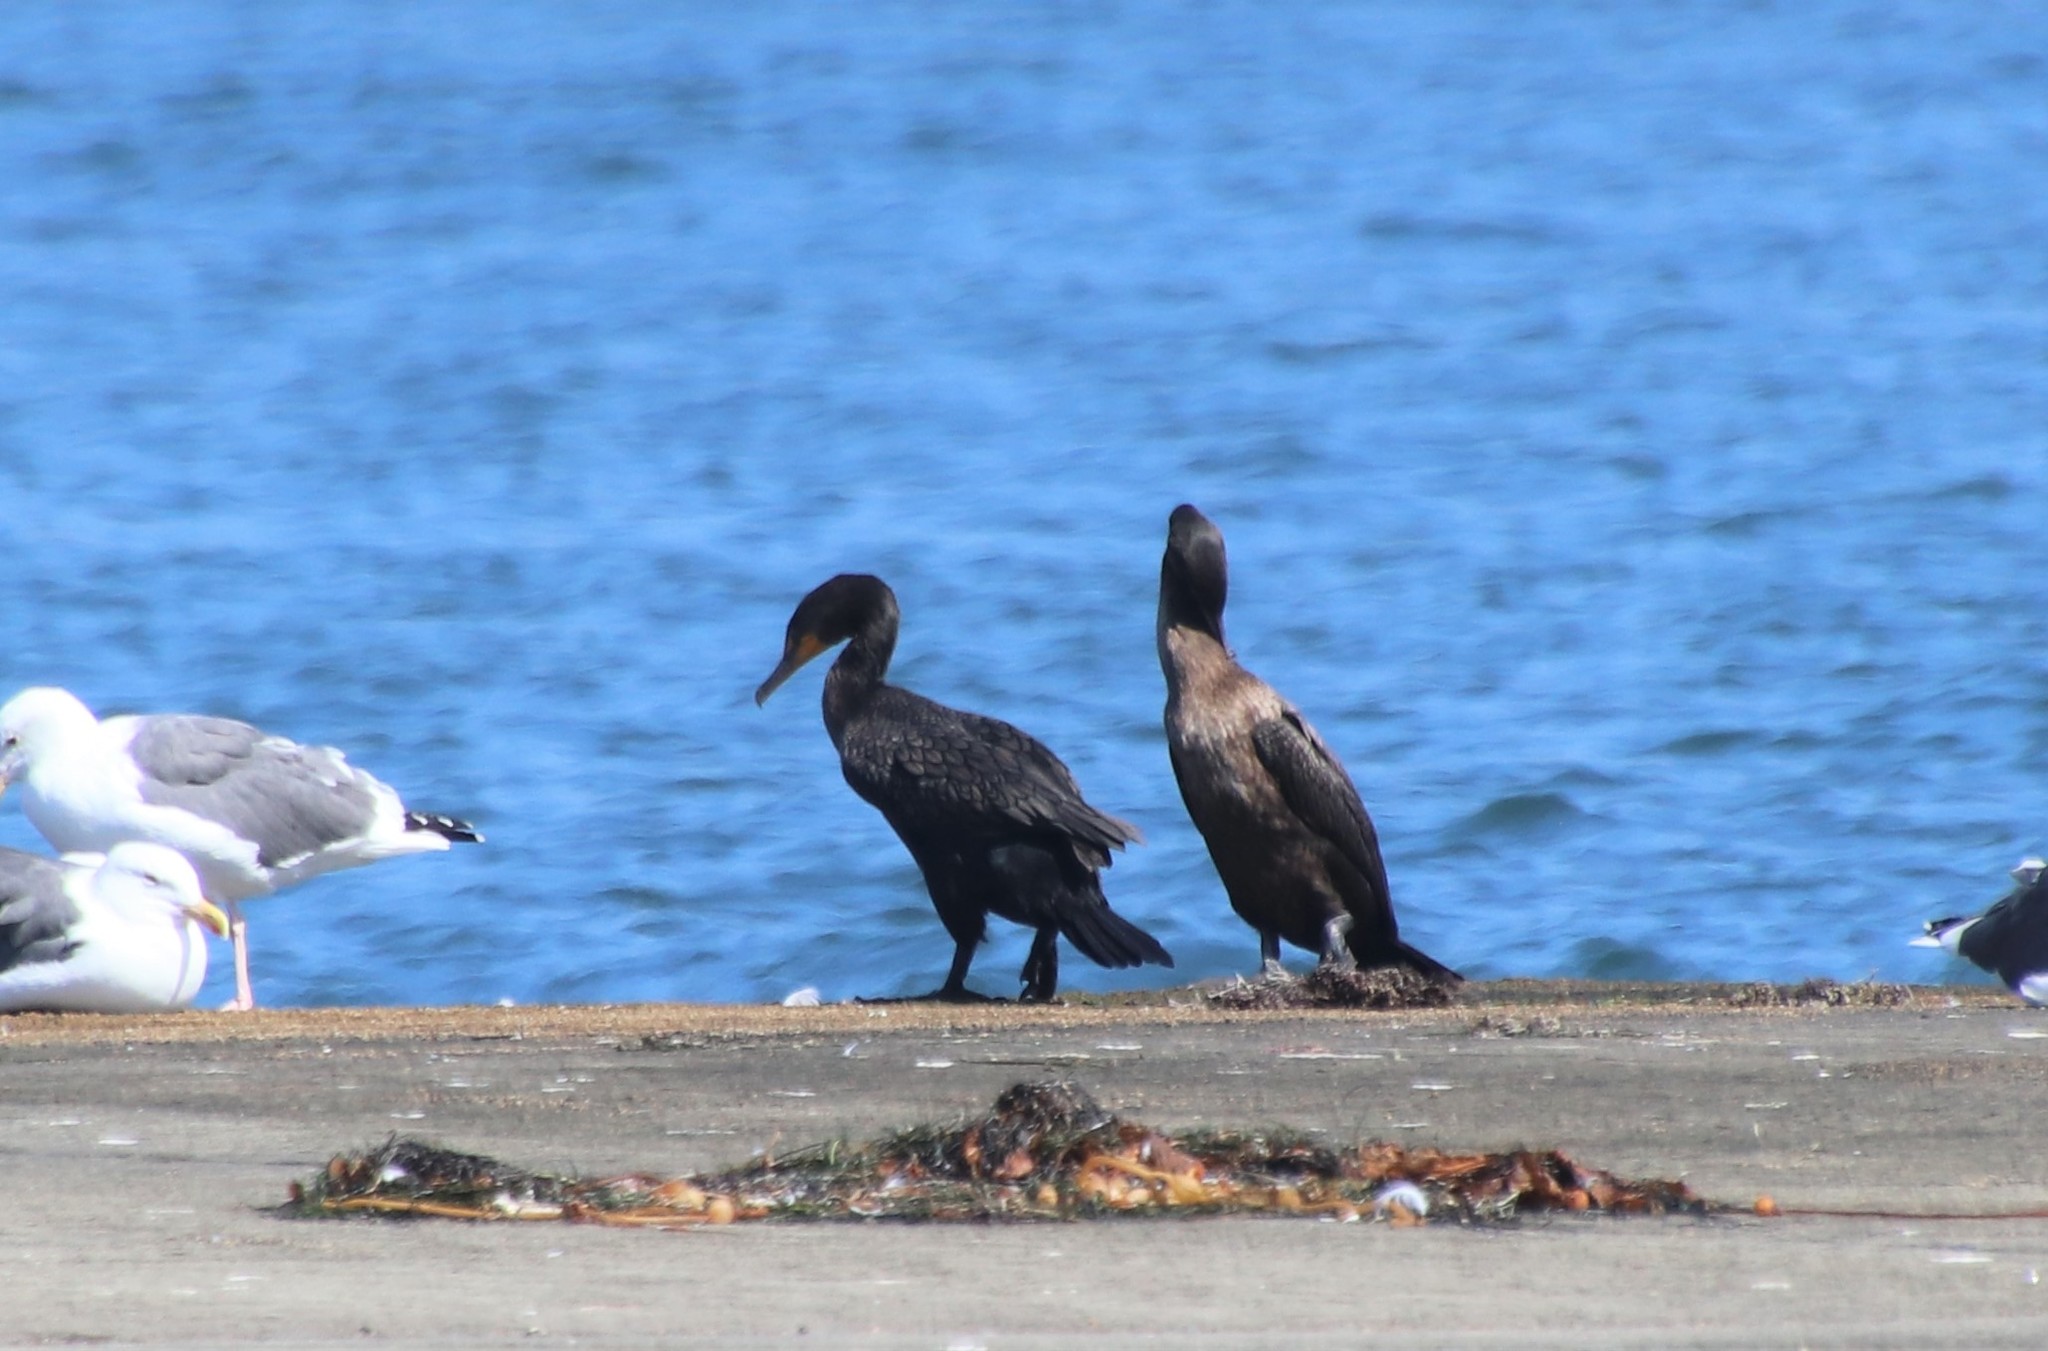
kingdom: Animalia
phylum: Chordata
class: Aves
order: Suliformes
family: Phalacrocoracidae
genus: Phalacrocorax
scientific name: Phalacrocorax auritus
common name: Double-crested cormorant
